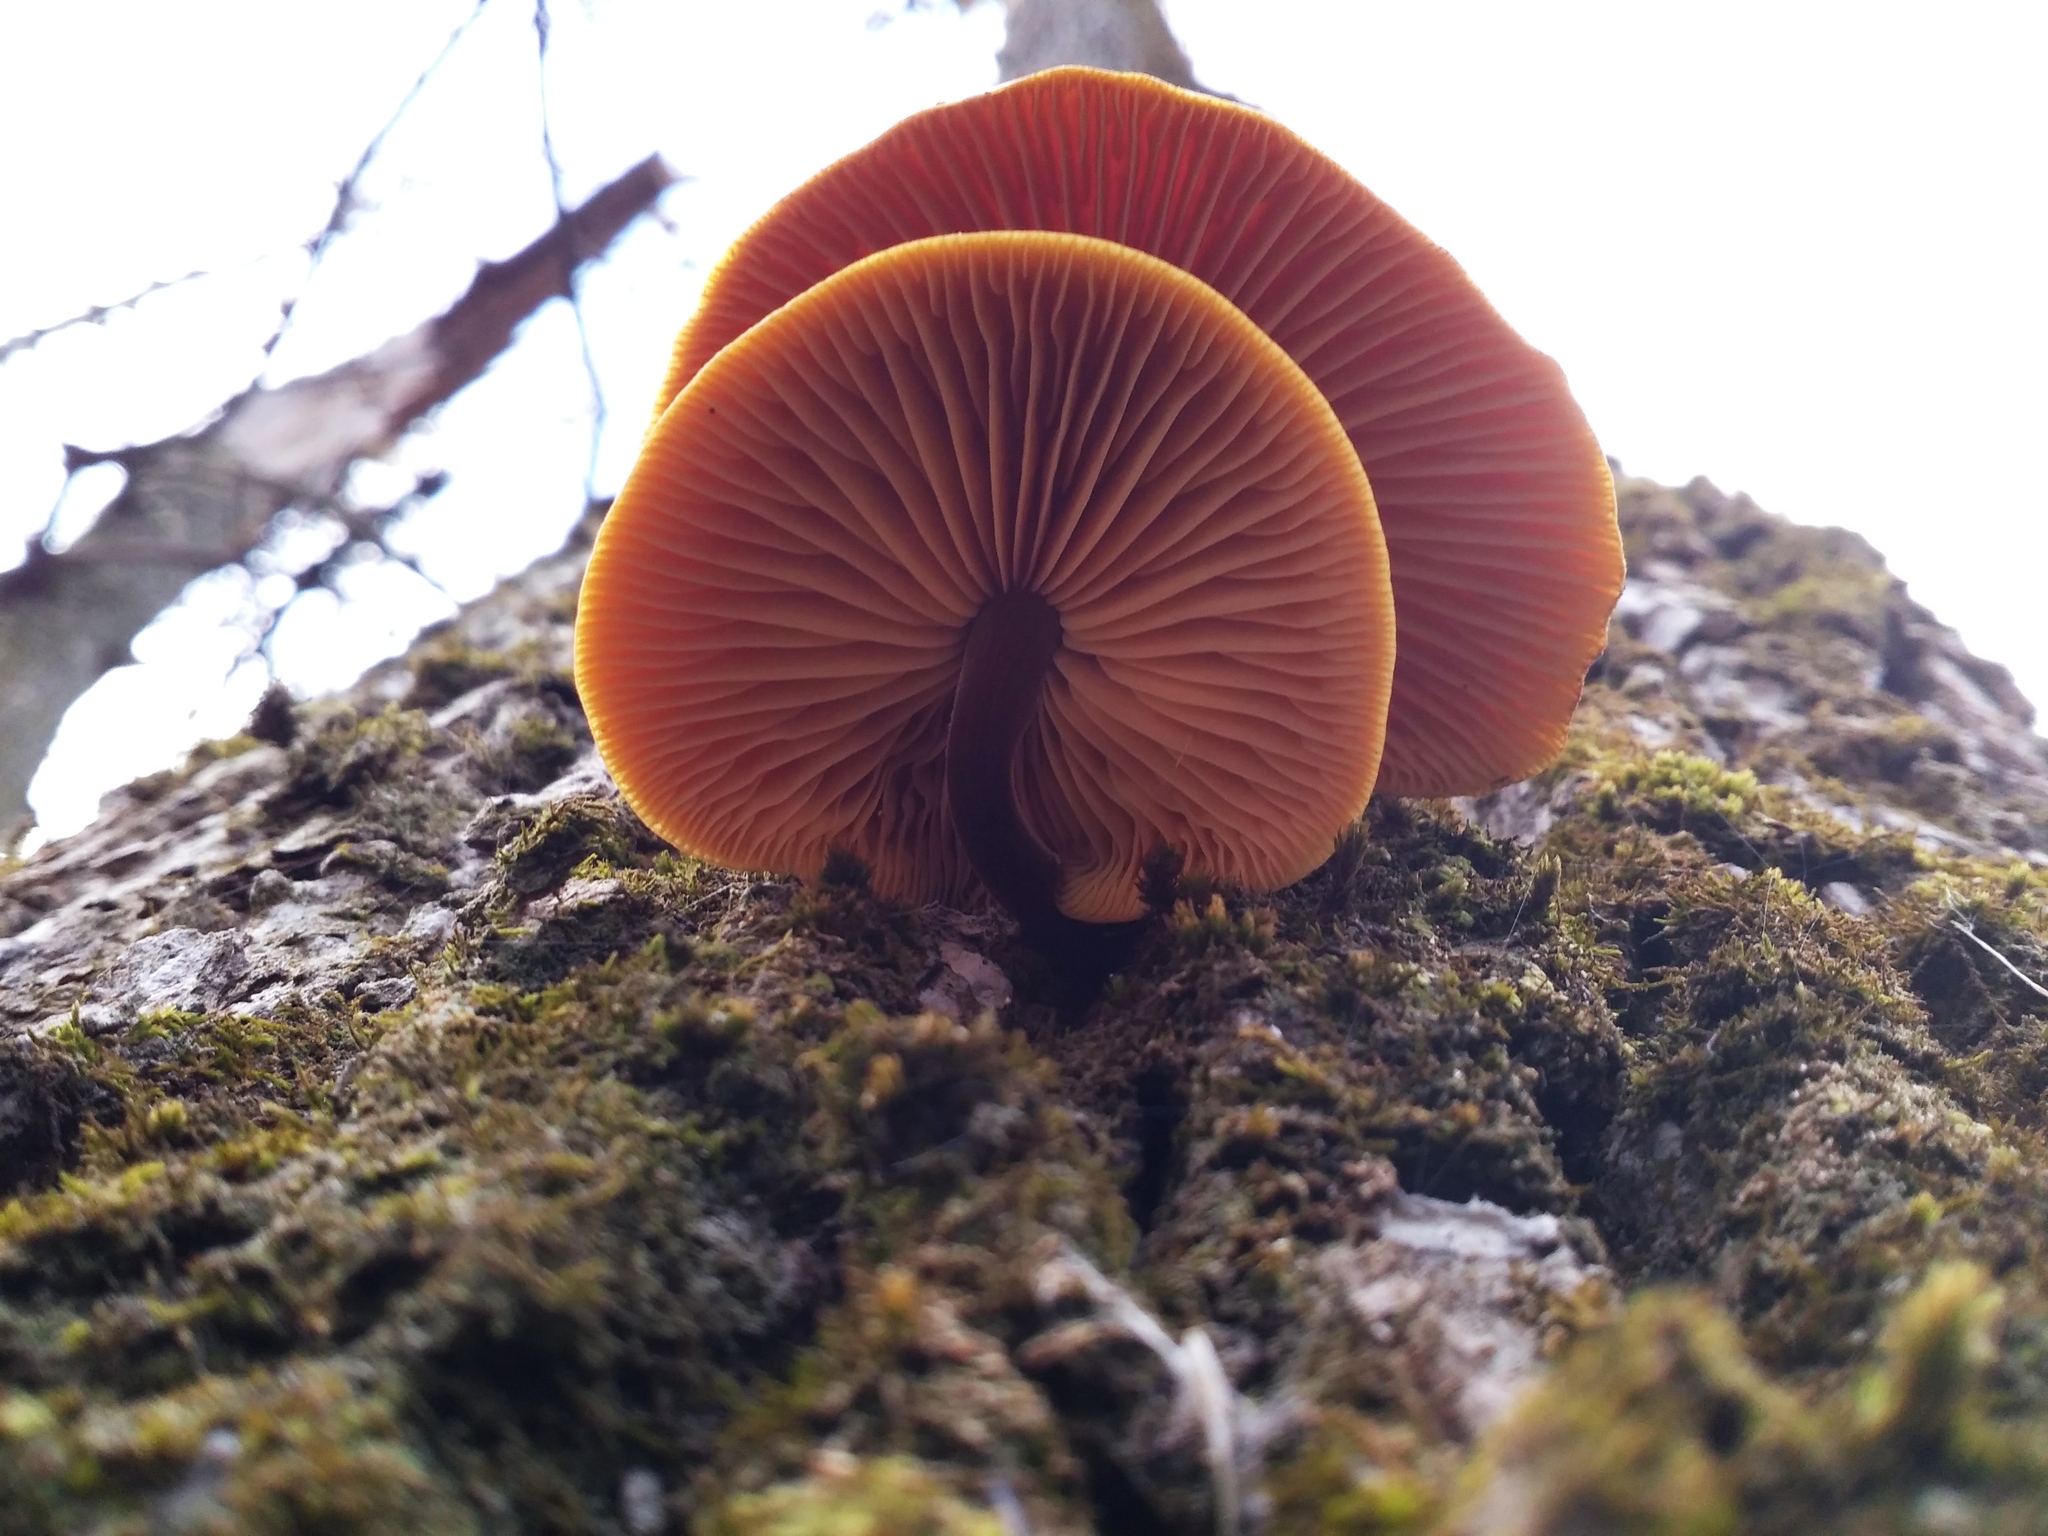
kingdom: Fungi
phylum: Basidiomycota
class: Agaricomycetes
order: Agaricales
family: Physalacriaceae
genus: Flammulina
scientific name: Flammulina
